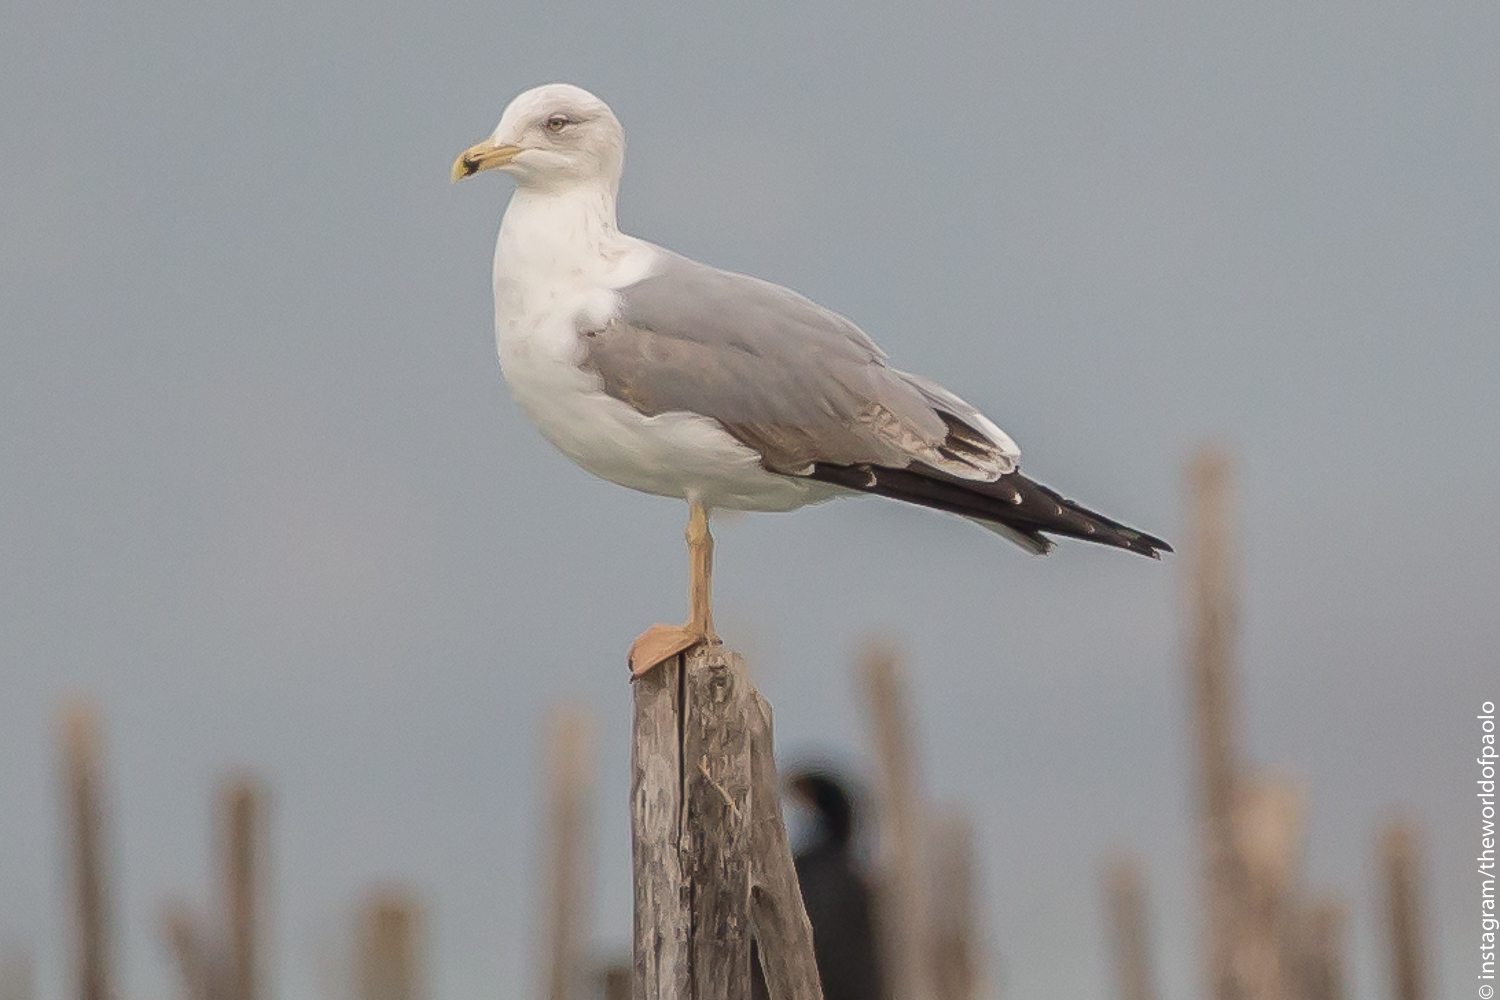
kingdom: Animalia
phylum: Chordata
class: Aves
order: Charadriiformes
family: Laridae
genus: Larus
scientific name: Larus michahellis
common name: Yellow-legged gull
